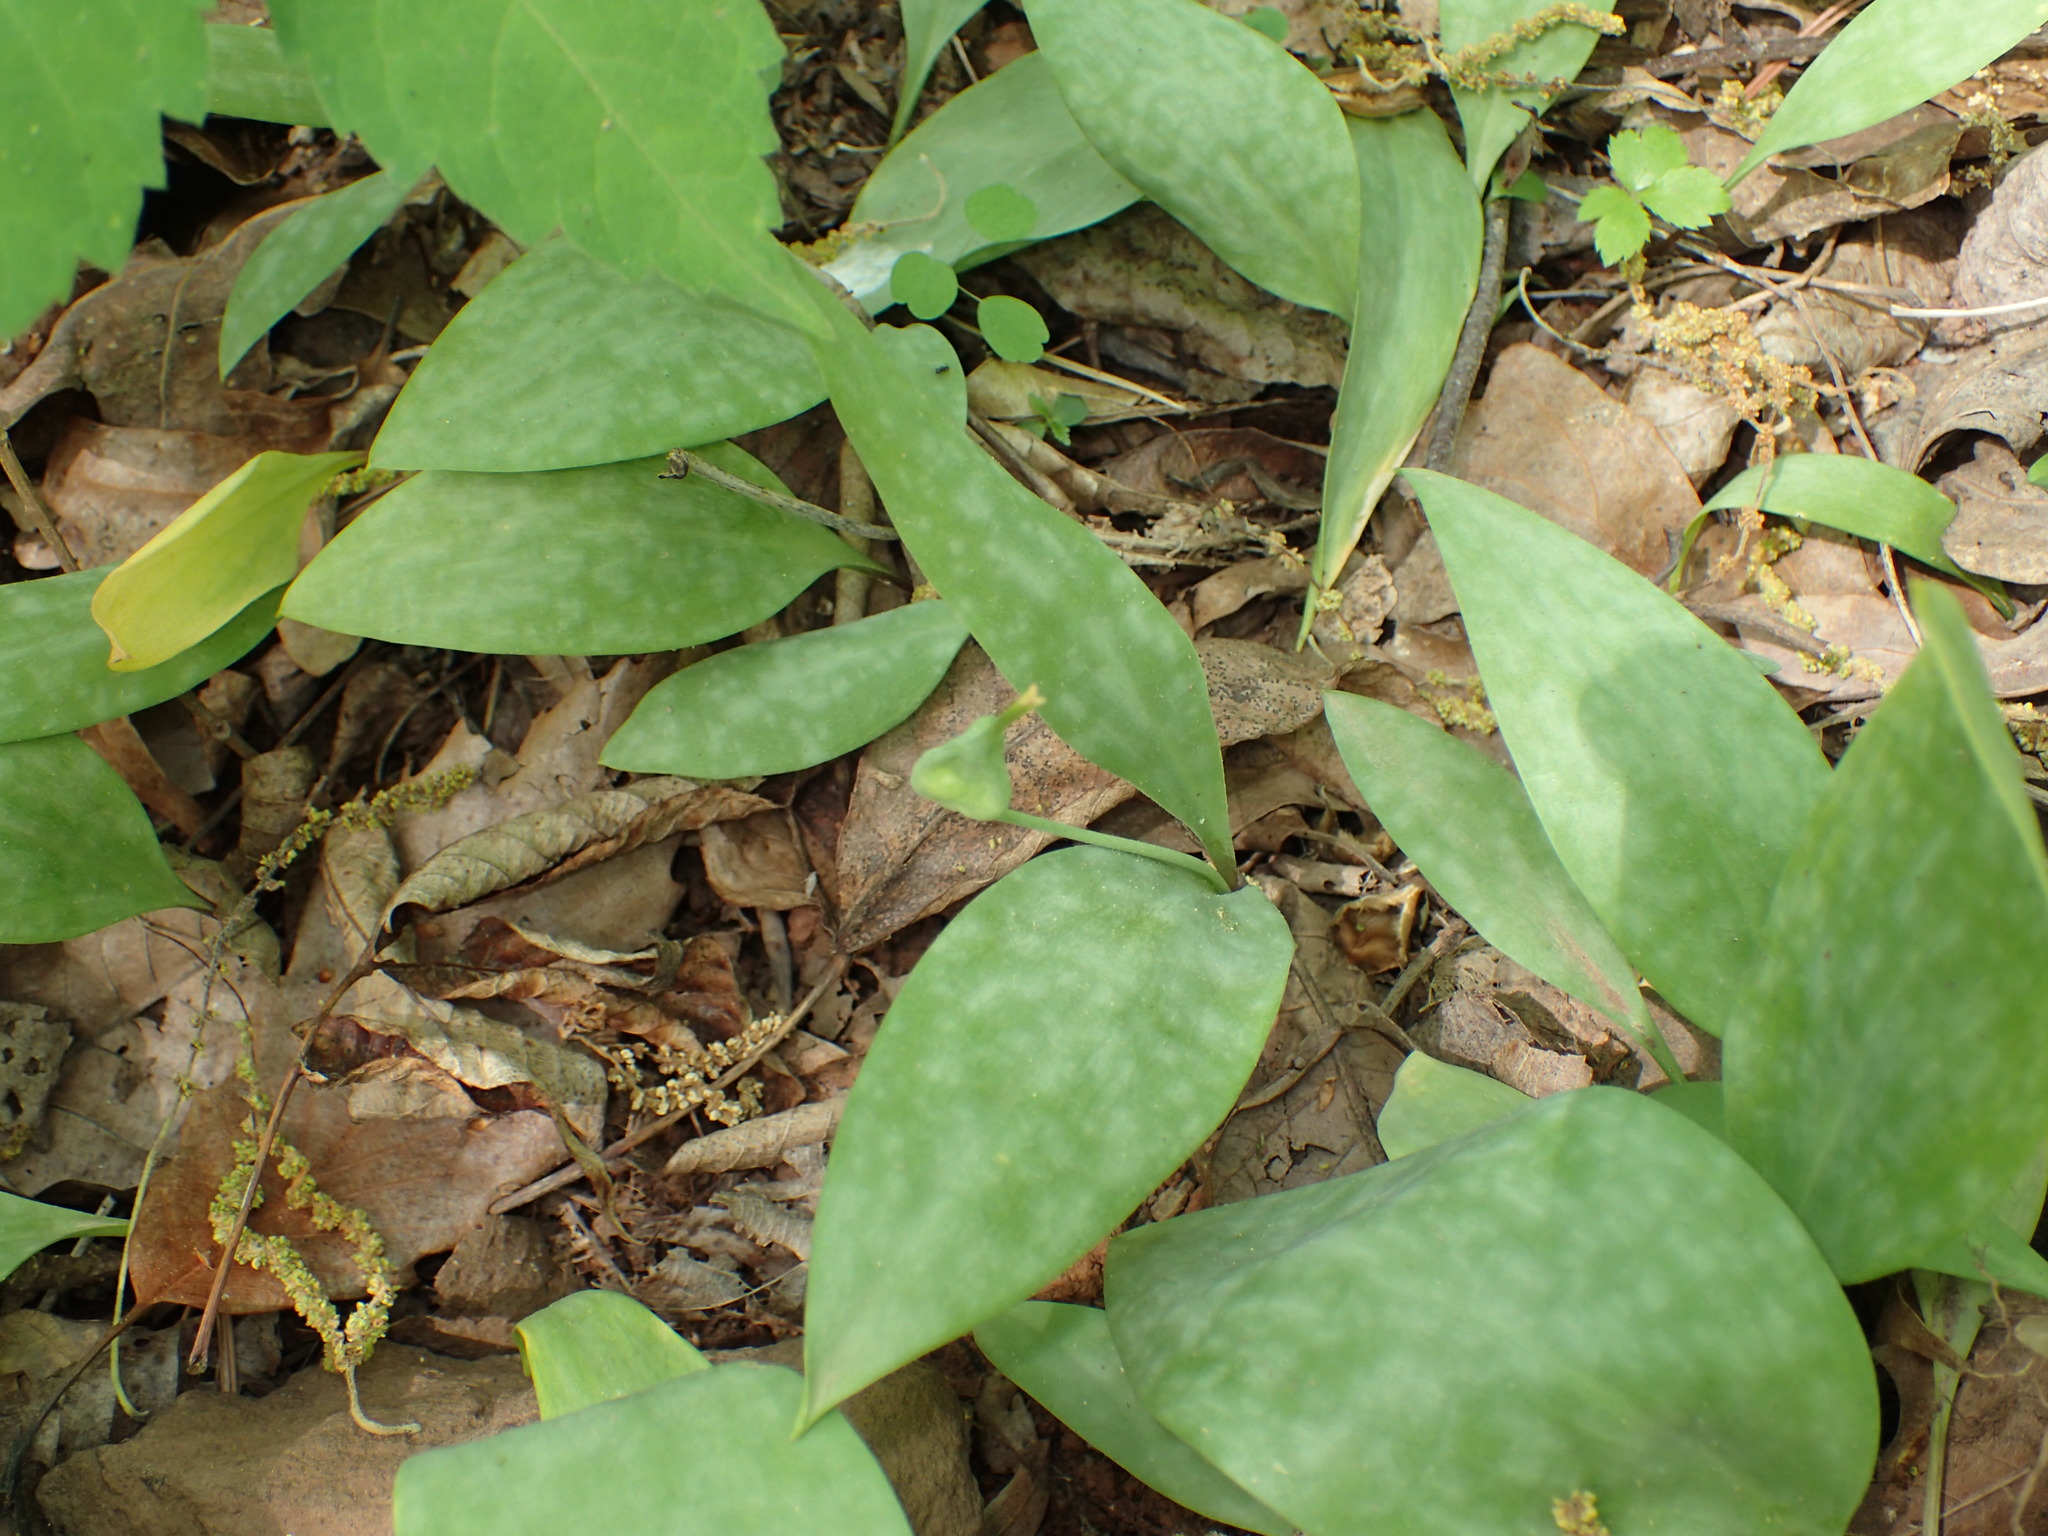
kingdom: Plantae
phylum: Tracheophyta
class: Liliopsida
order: Liliales
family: Liliaceae
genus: Erythronium
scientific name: Erythronium rostratum
